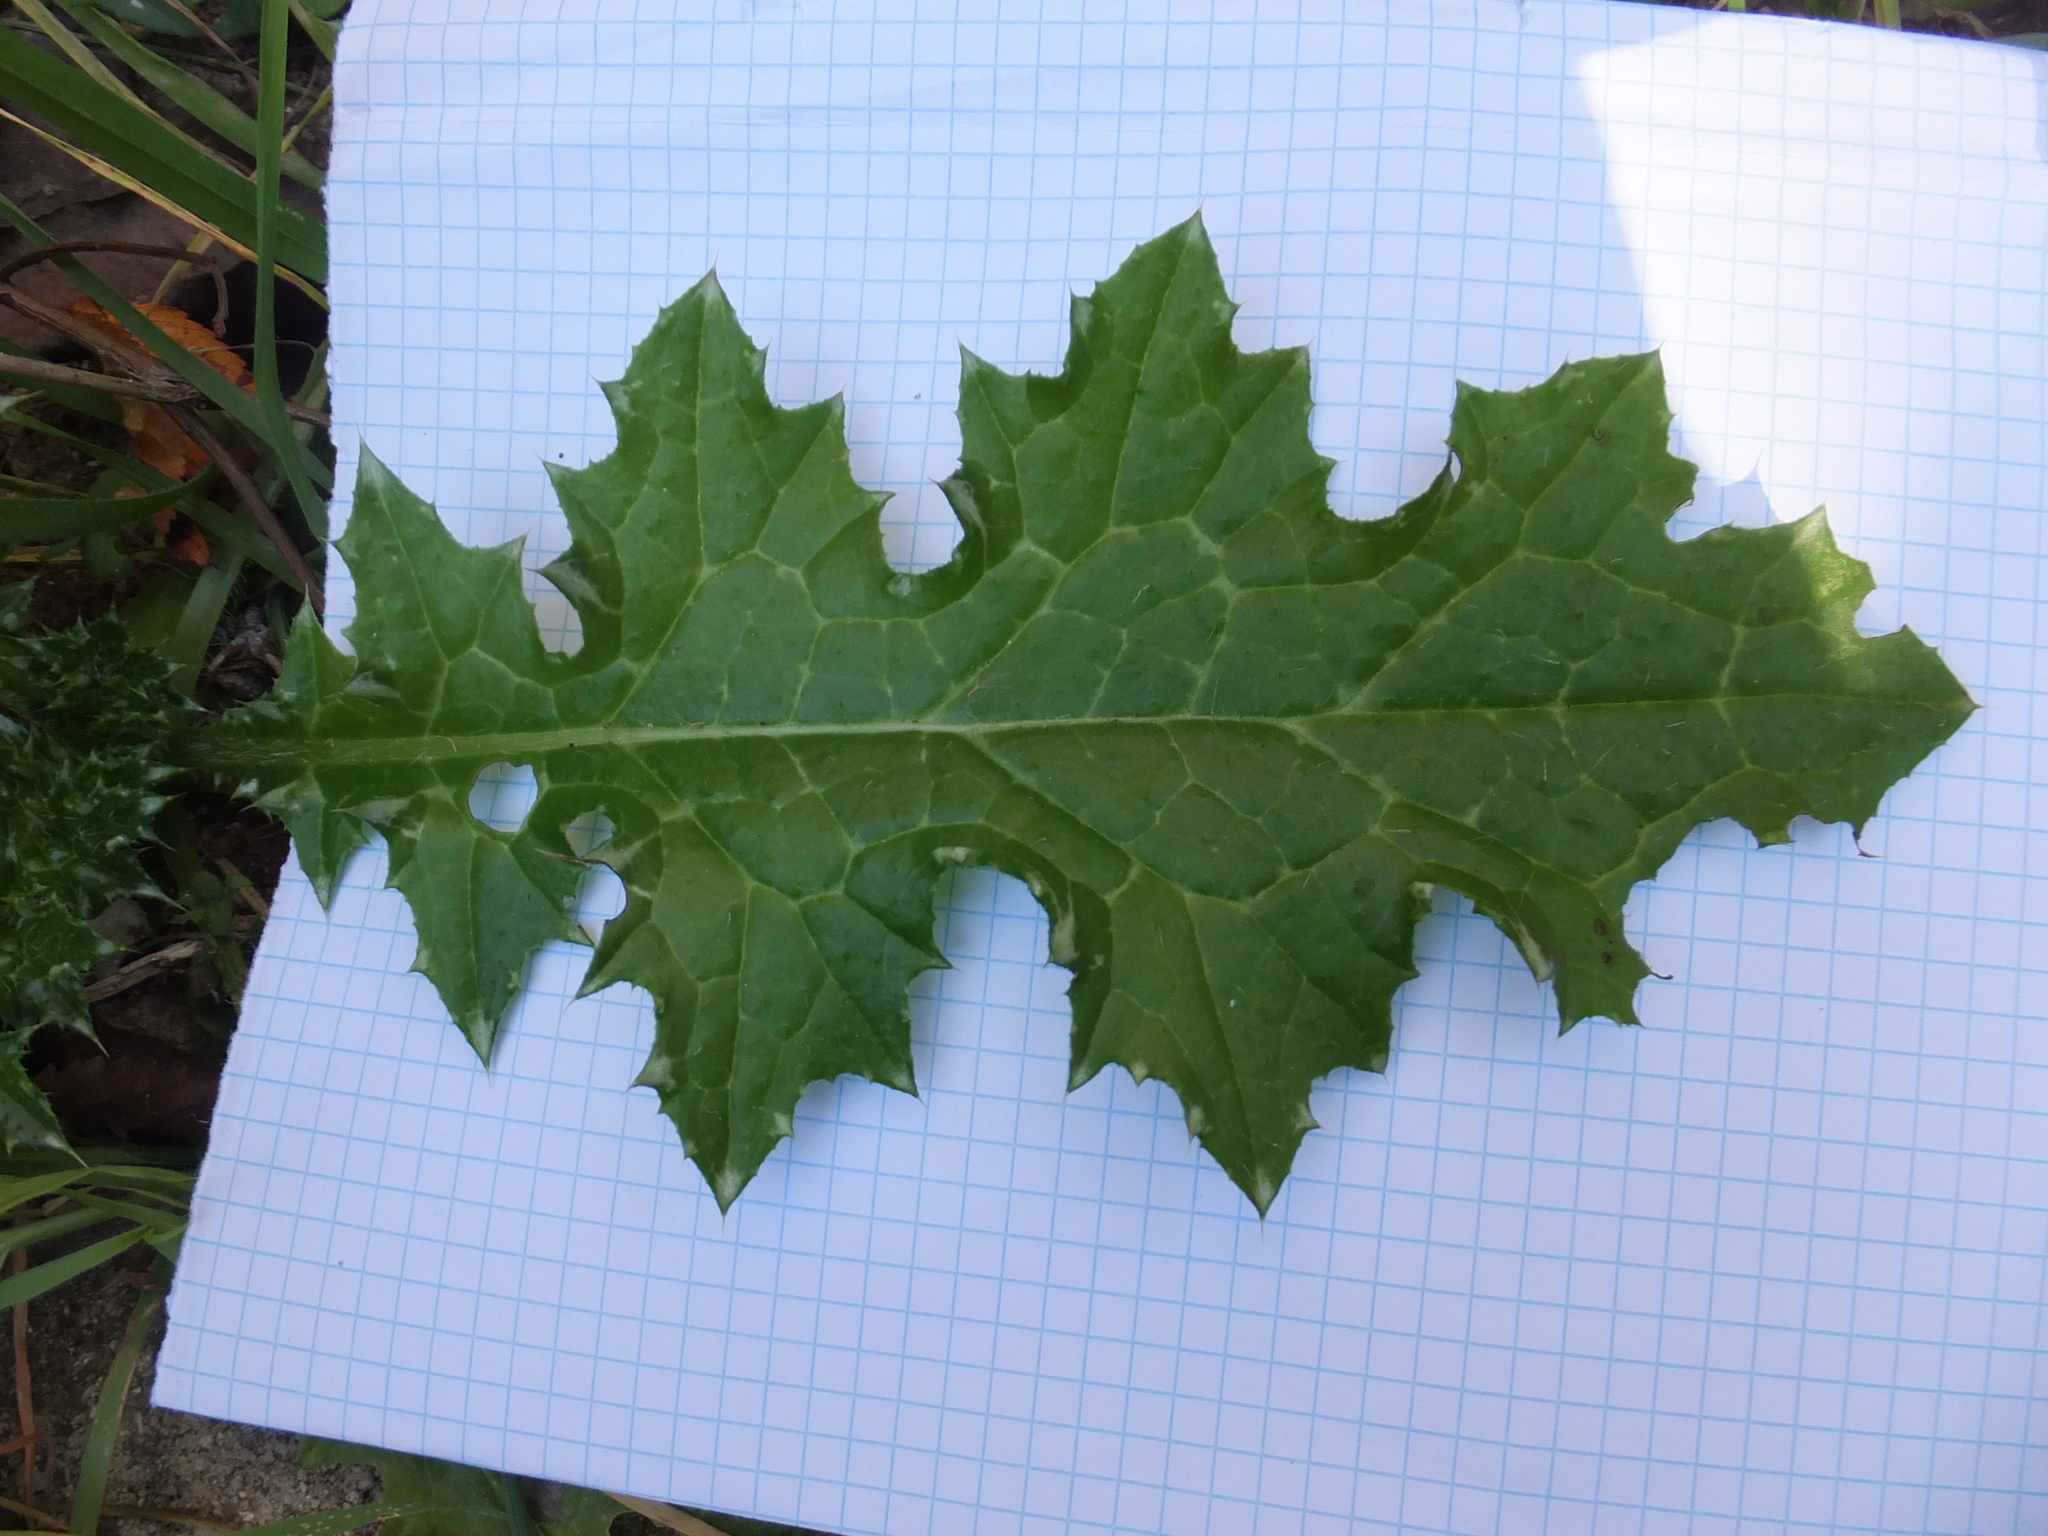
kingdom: Plantae
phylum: Tracheophyta
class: Magnoliopsida
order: Asterales
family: Asteraceae
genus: Carduus
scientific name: Carduus pycnocephalus
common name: Plymouth thistle
